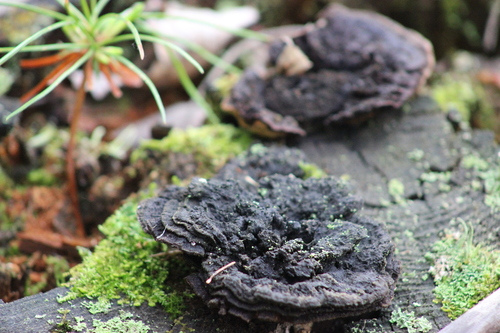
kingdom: Fungi
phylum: Basidiomycota
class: Agaricomycetes
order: Gloeophyllales
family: Gloeophyllaceae
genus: Gloeophyllum
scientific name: Gloeophyllum sepiarium
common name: Conifer mazegill
